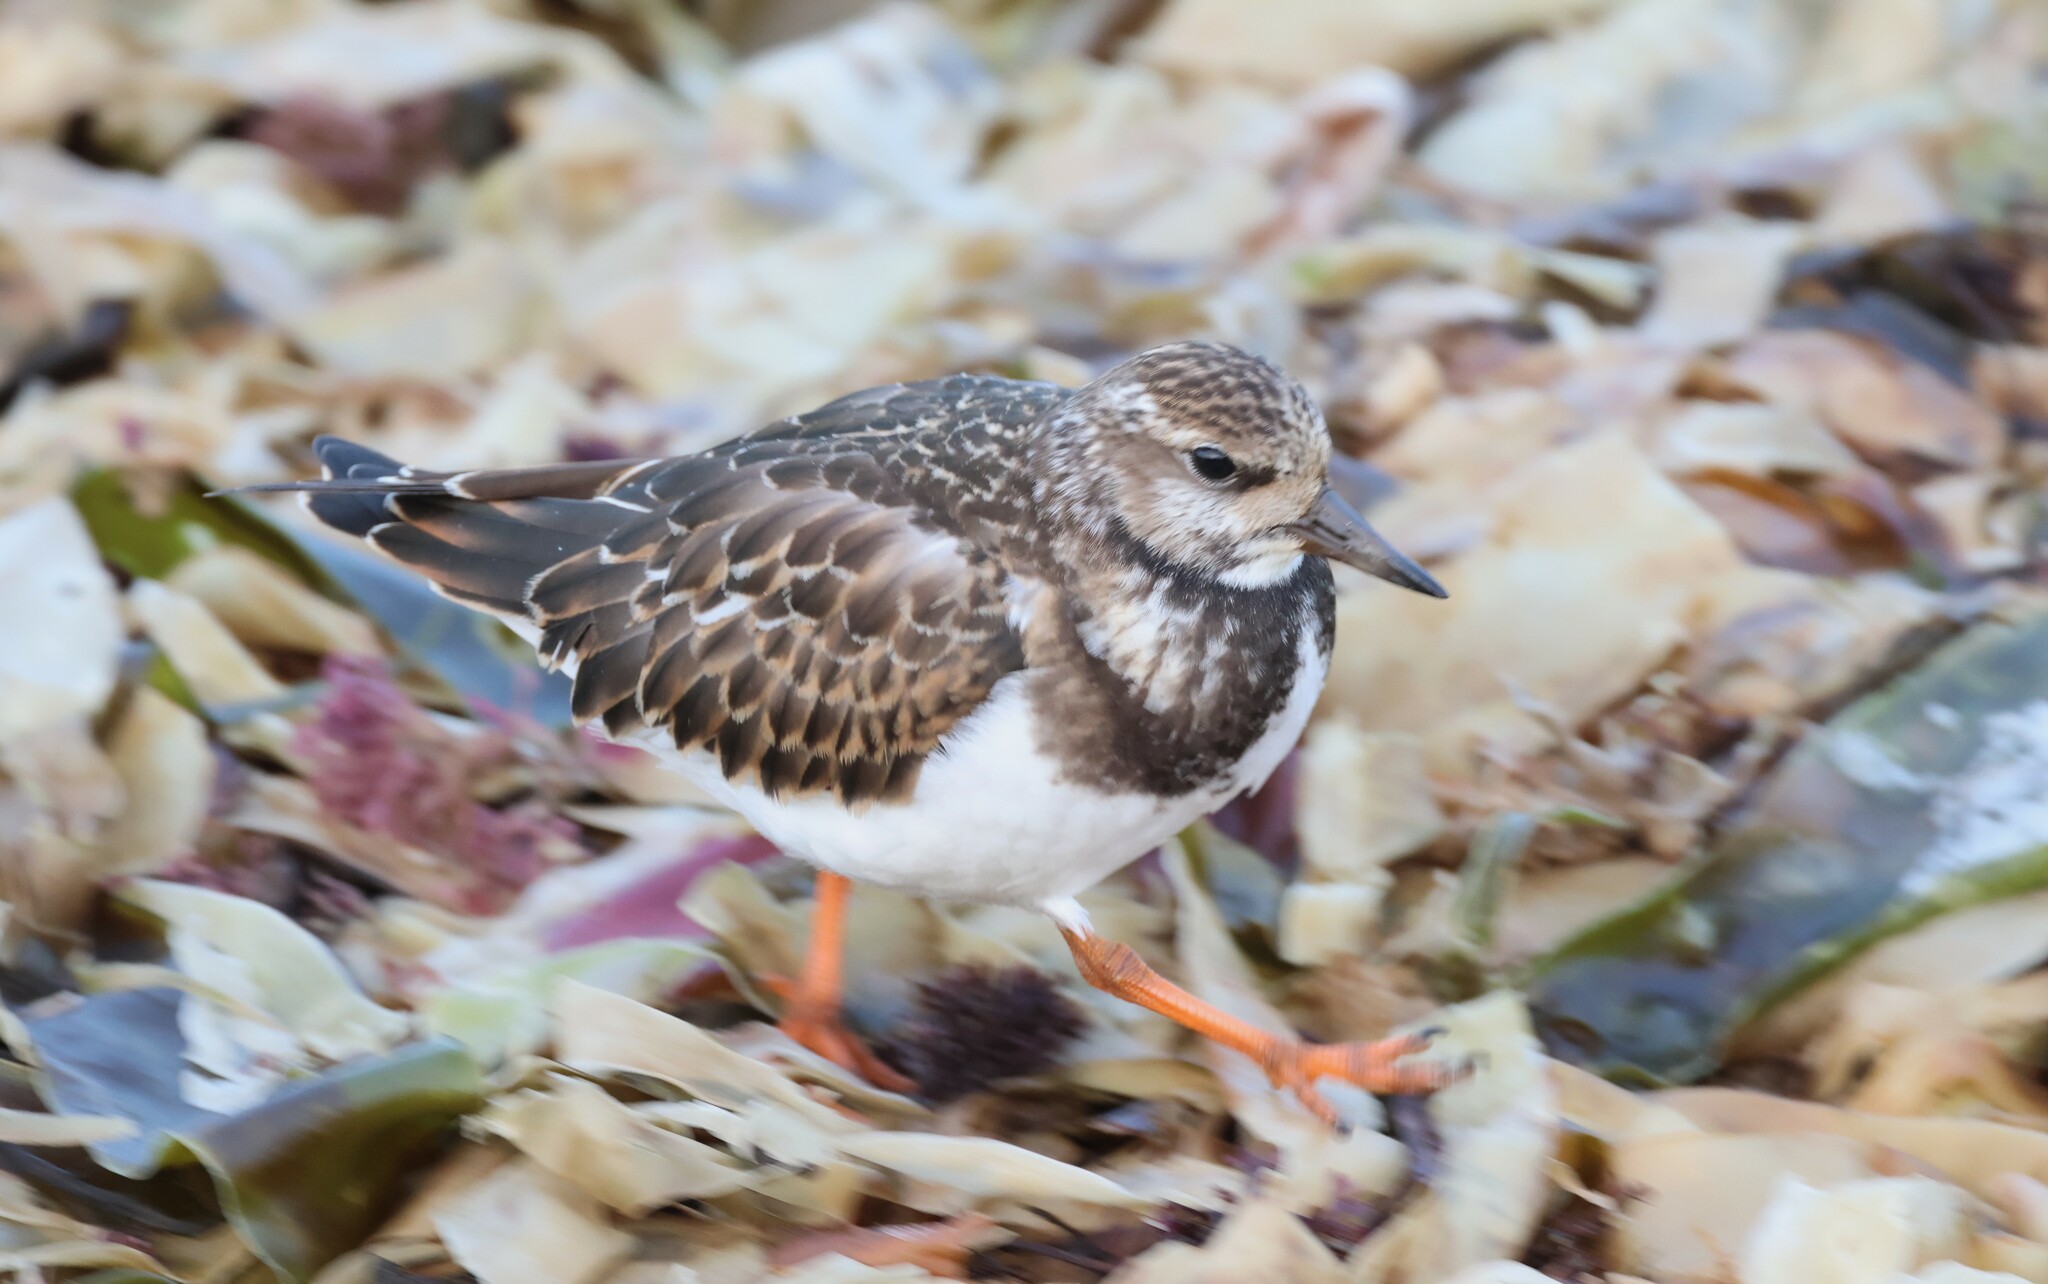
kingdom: Animalia
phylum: Chordata
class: Aves
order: Charadriiformes
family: Scolopacidae
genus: Arenaria
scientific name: Arenaria interpres
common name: Ruddy turnstone
